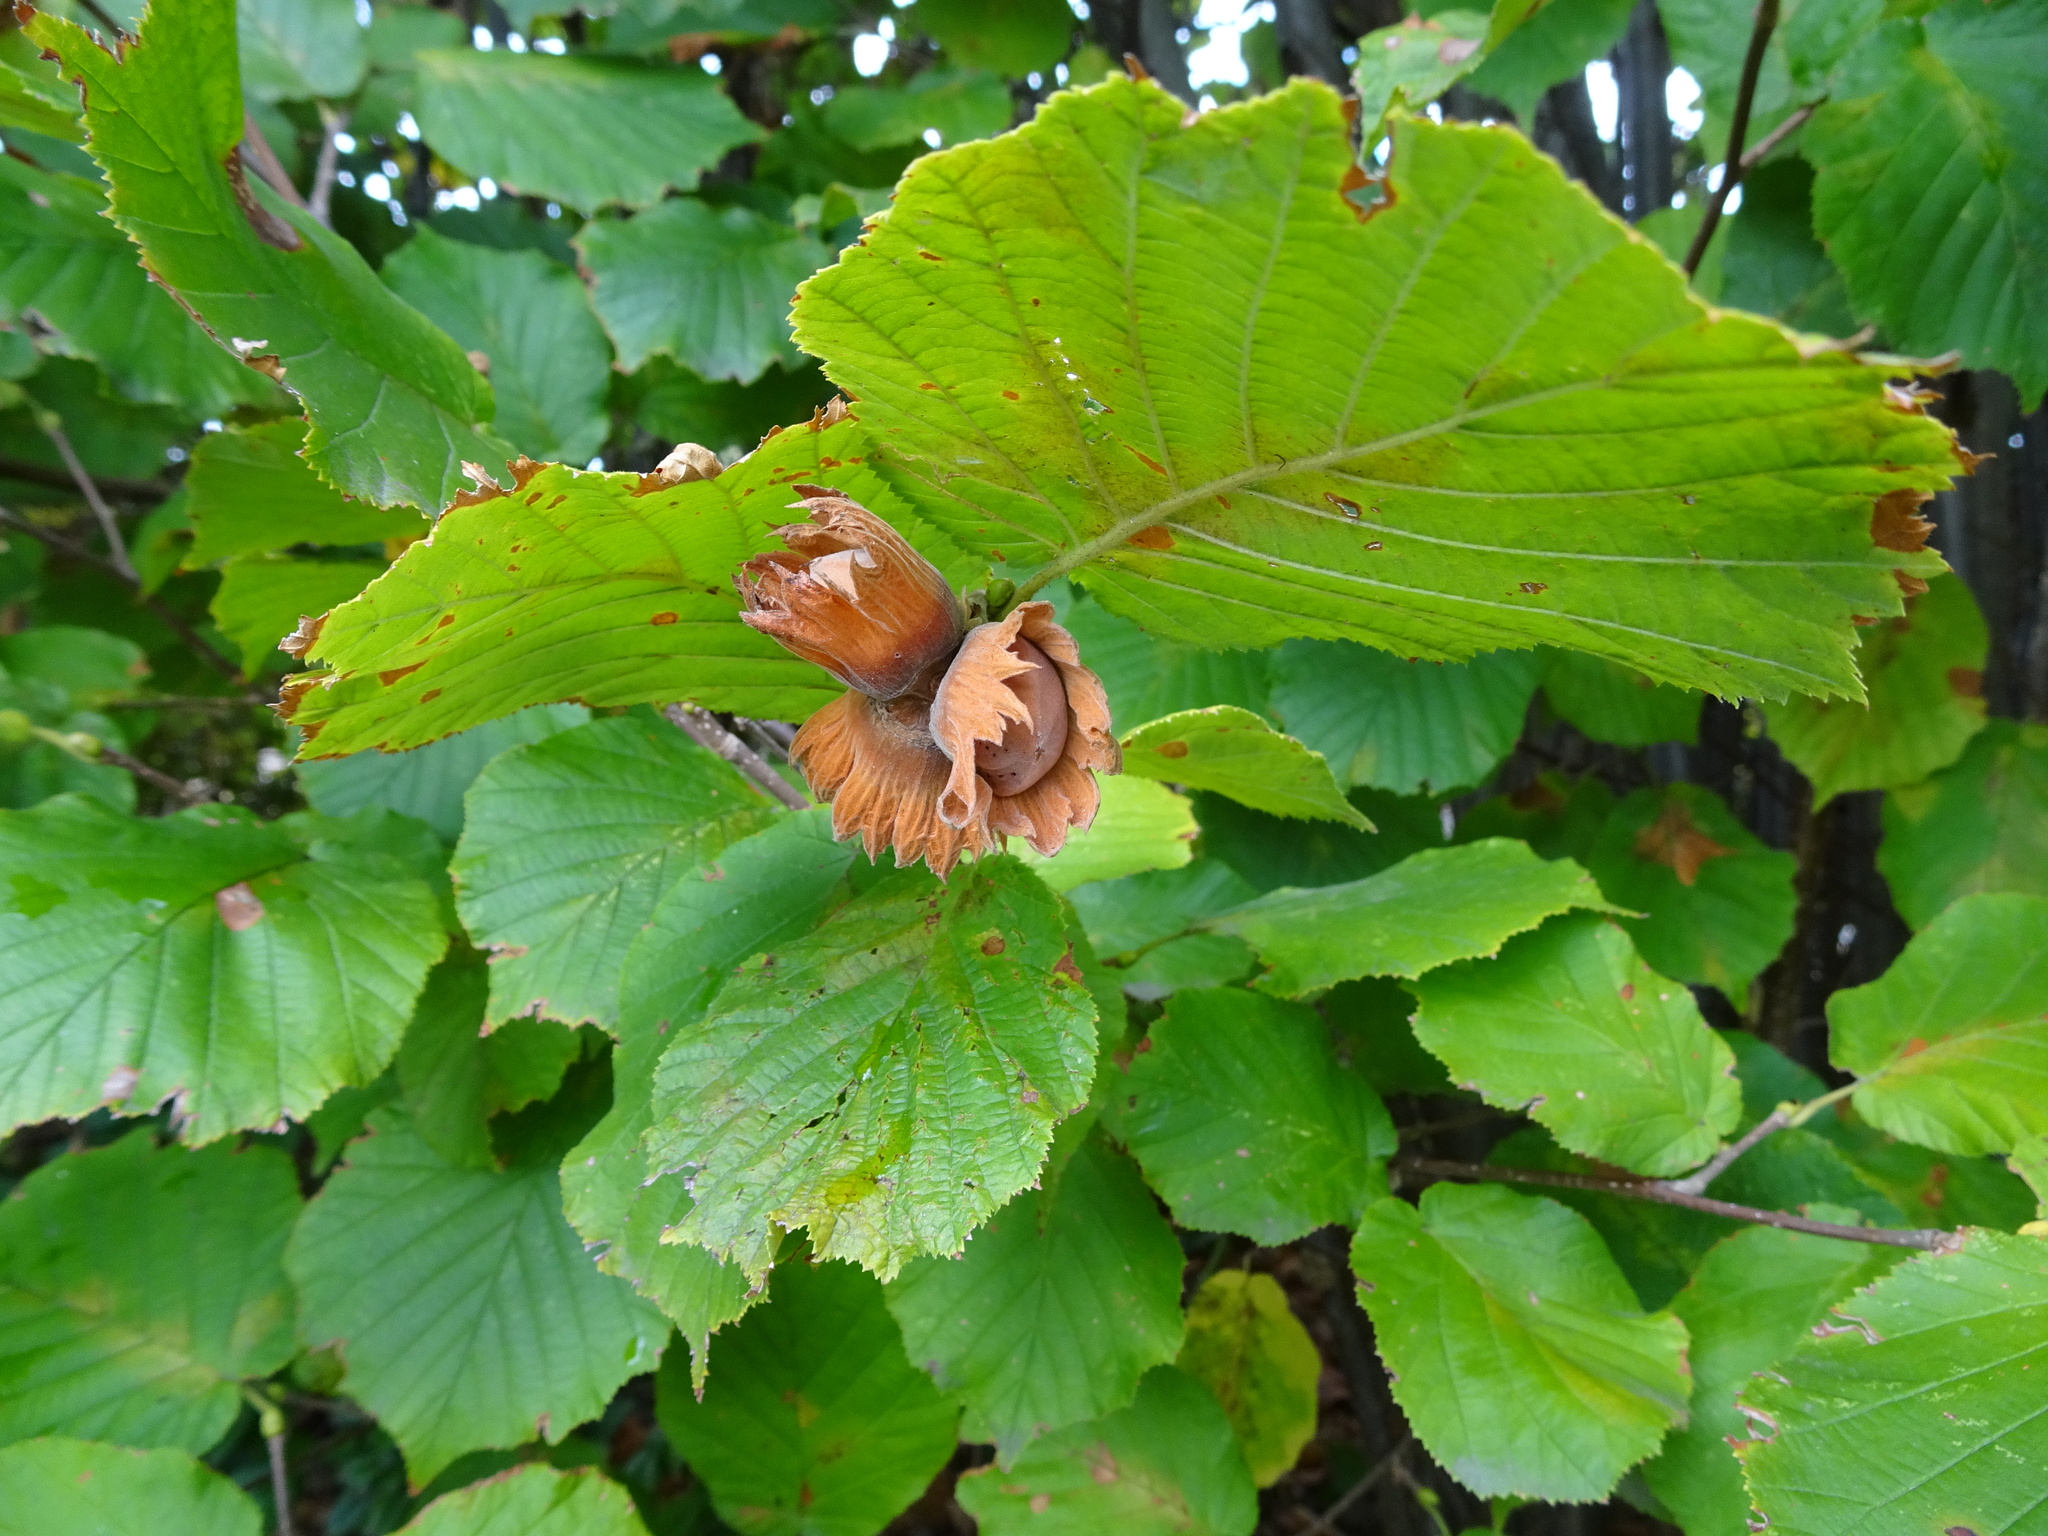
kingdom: Plantae
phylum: Tracheophyta
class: Magnoliopsida
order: Fagales
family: Betulaceae
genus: Corylus
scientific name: Corylus avellana
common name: European hazel
